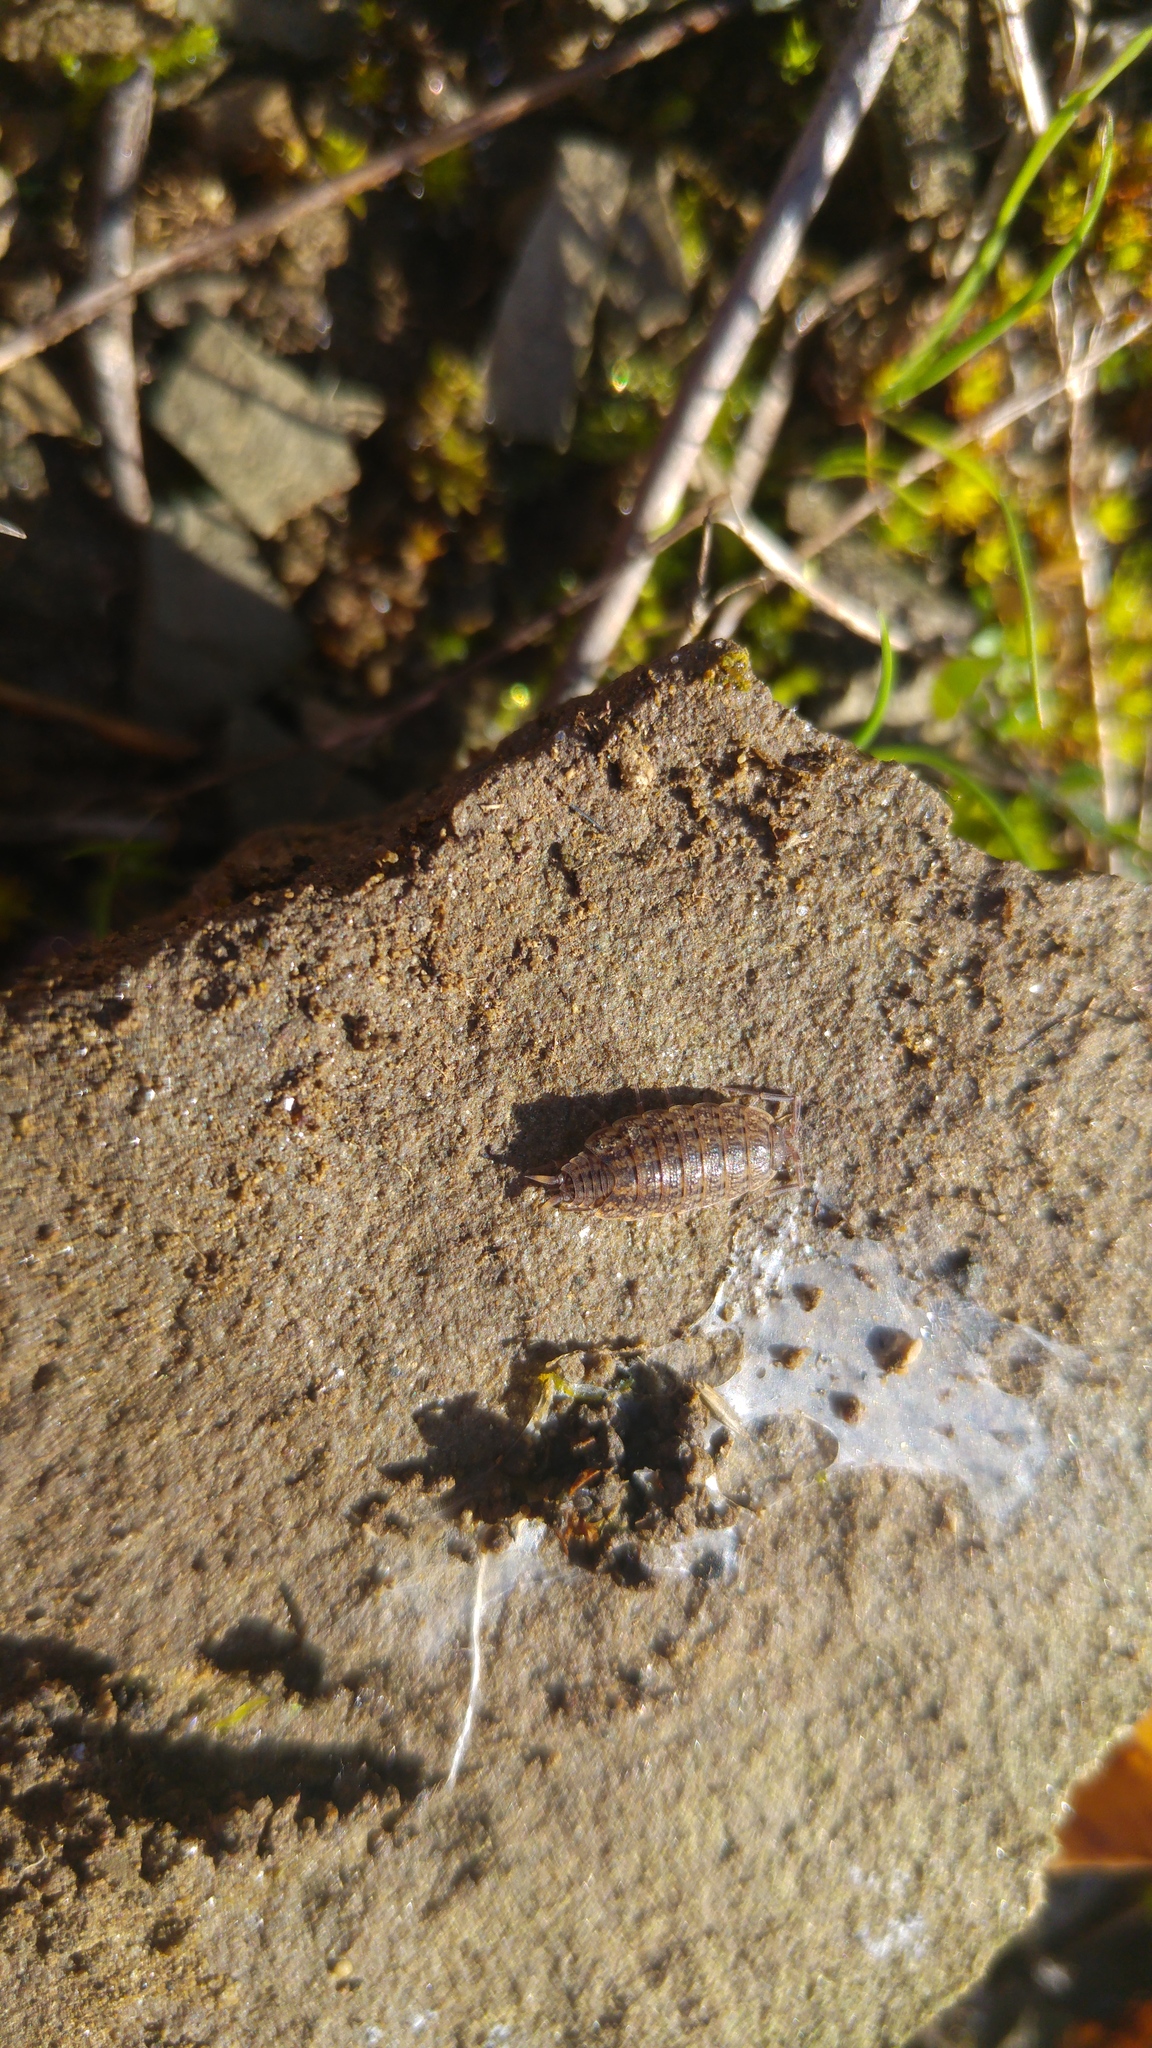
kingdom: Animalia
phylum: Arthropoda
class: Malacostraca
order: Isopoda
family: Agnaridae
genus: Orthometopon
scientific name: Orthometopon dalmatinum
